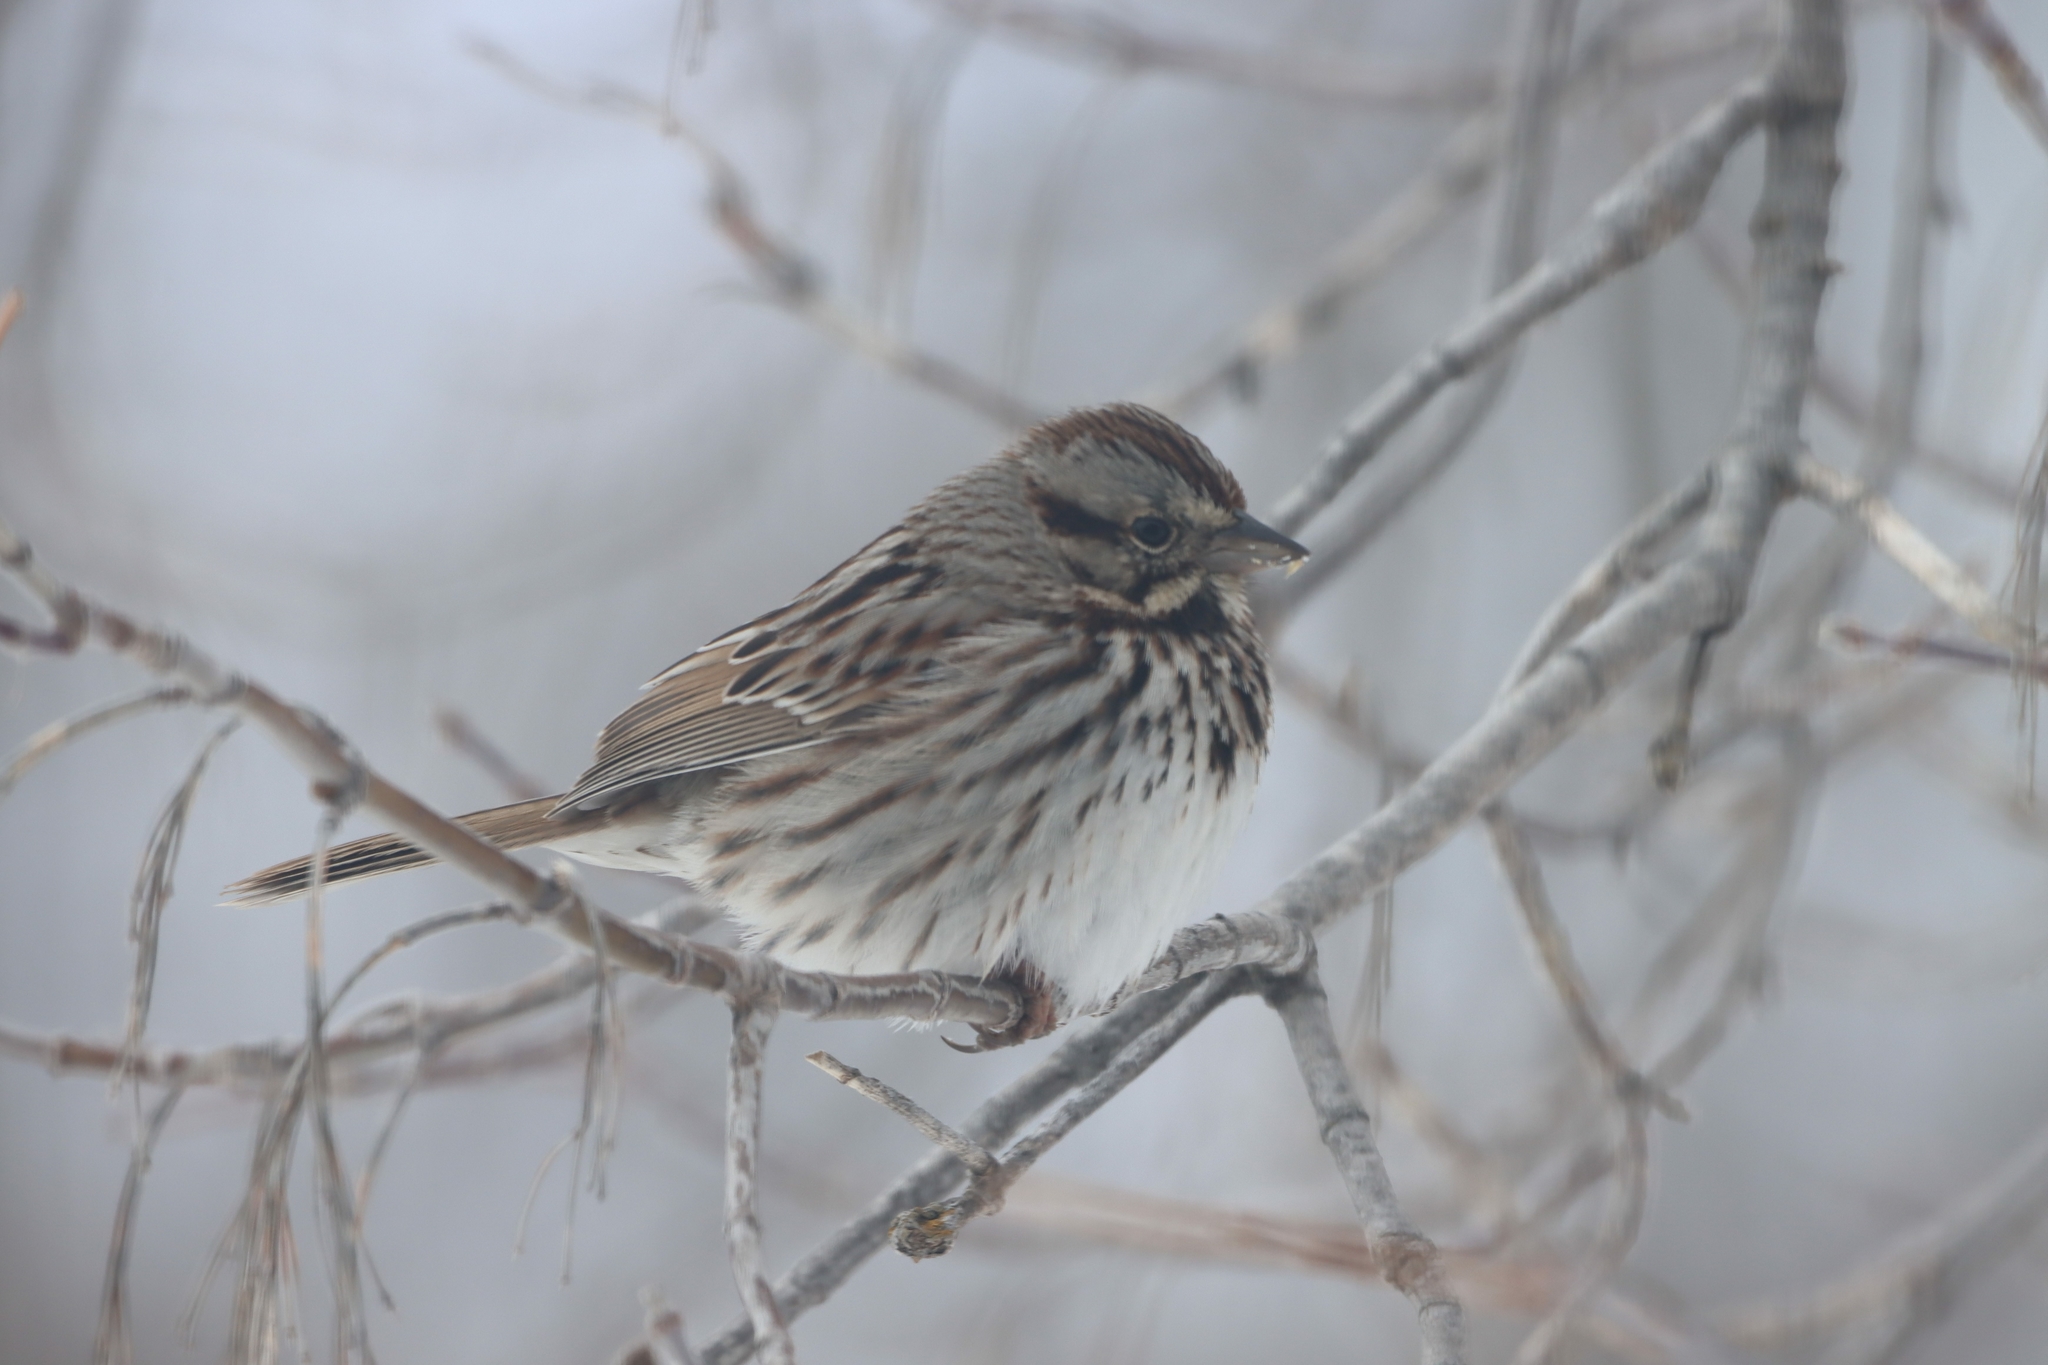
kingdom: Animalia
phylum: Chordata
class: Aves
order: Passeriformes
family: Passerellidae
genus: Melospiza
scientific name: Melospiza melodia
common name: Song sparrow
